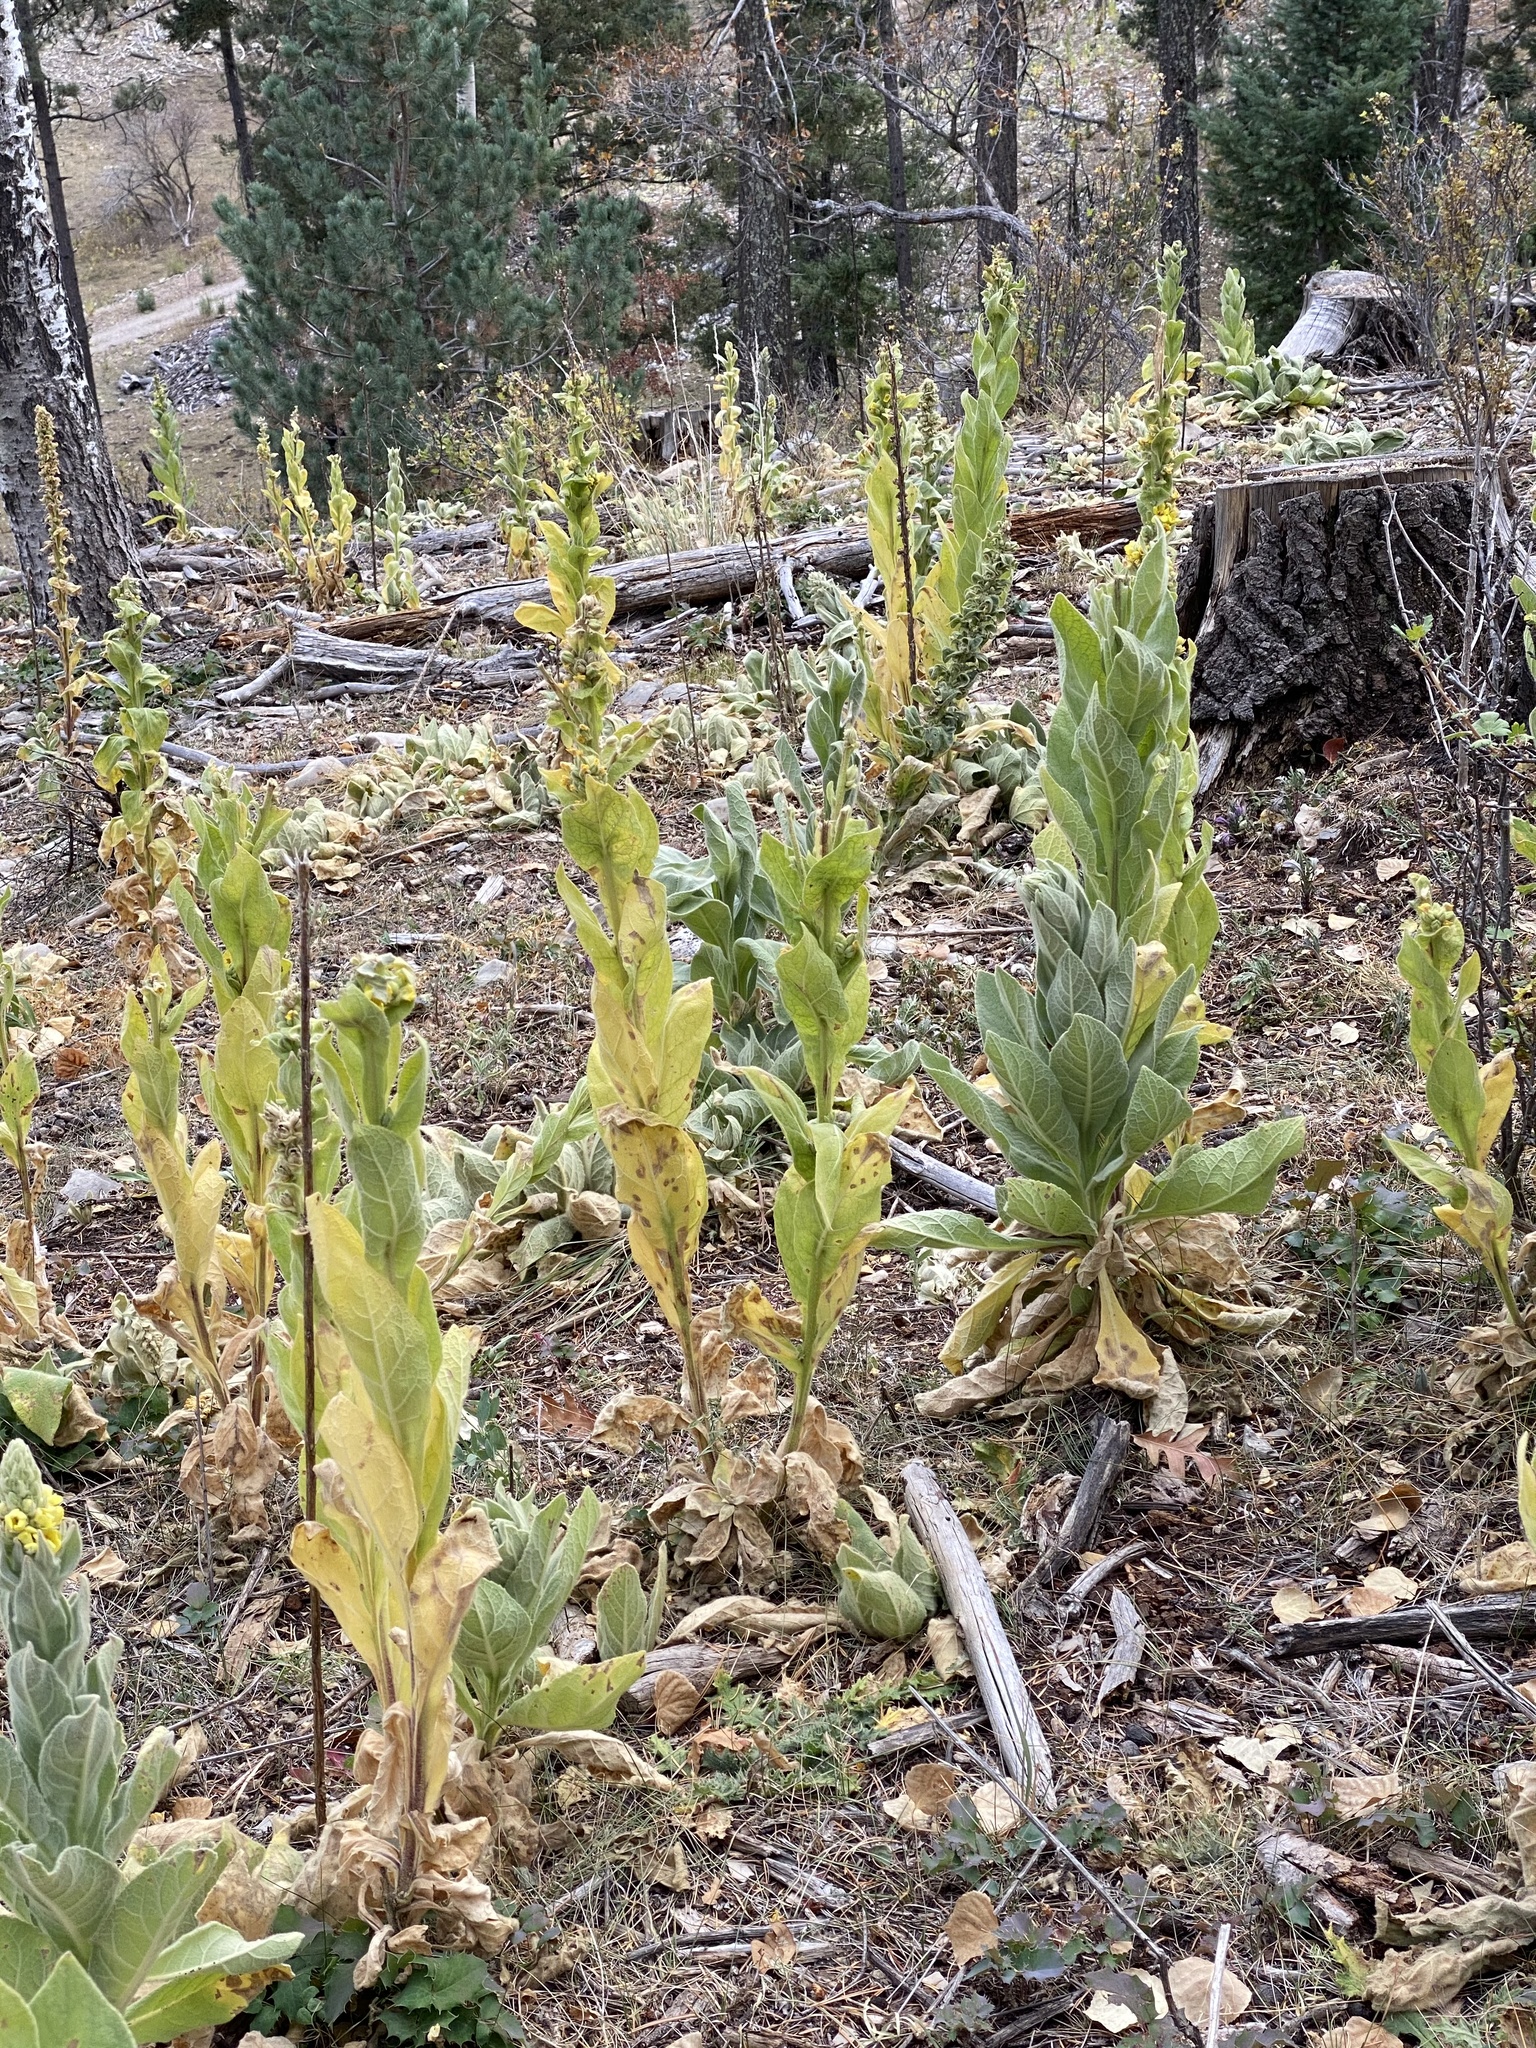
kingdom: Plantae
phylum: Tracheophyta
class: Magnoliopsida
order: Lamiales
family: Scrophulariaceae
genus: Verbascum
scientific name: Verbascum thapsus
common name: Common mullein
